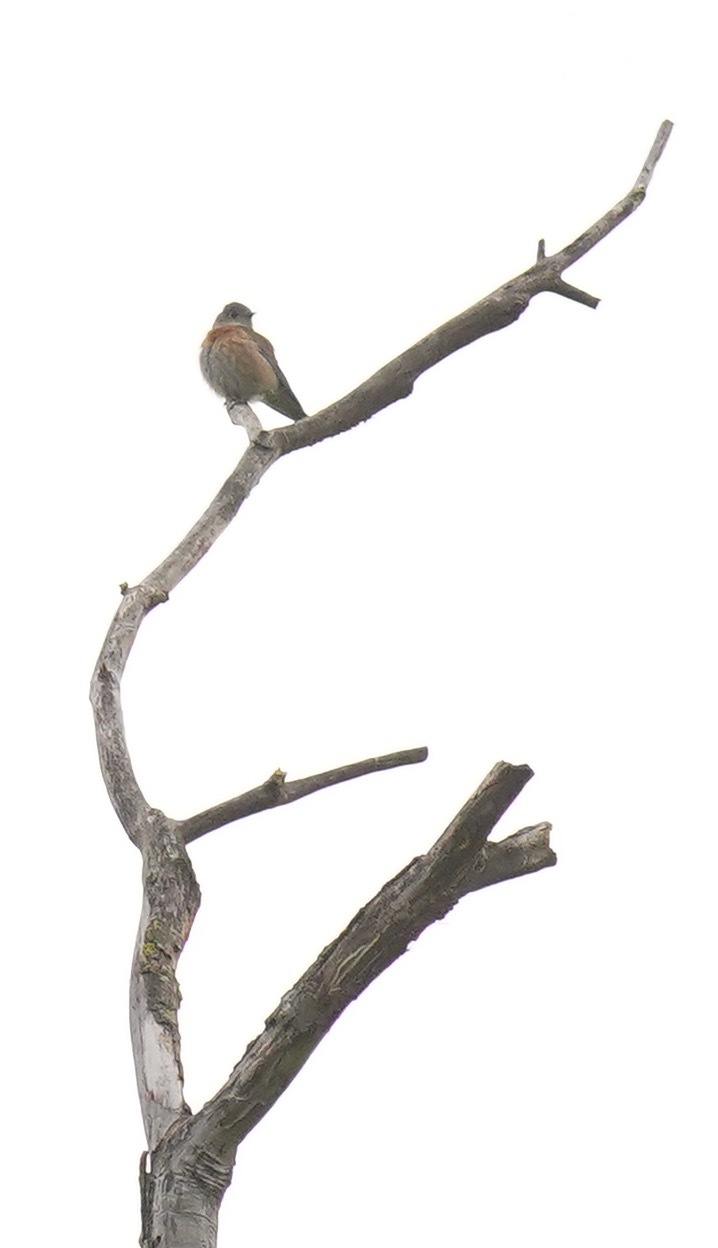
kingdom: Animalia
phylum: Chordata
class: Aves
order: Passeriformes
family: Turdidae
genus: Sialia
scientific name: Sialia mexicana
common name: Western bluebird
